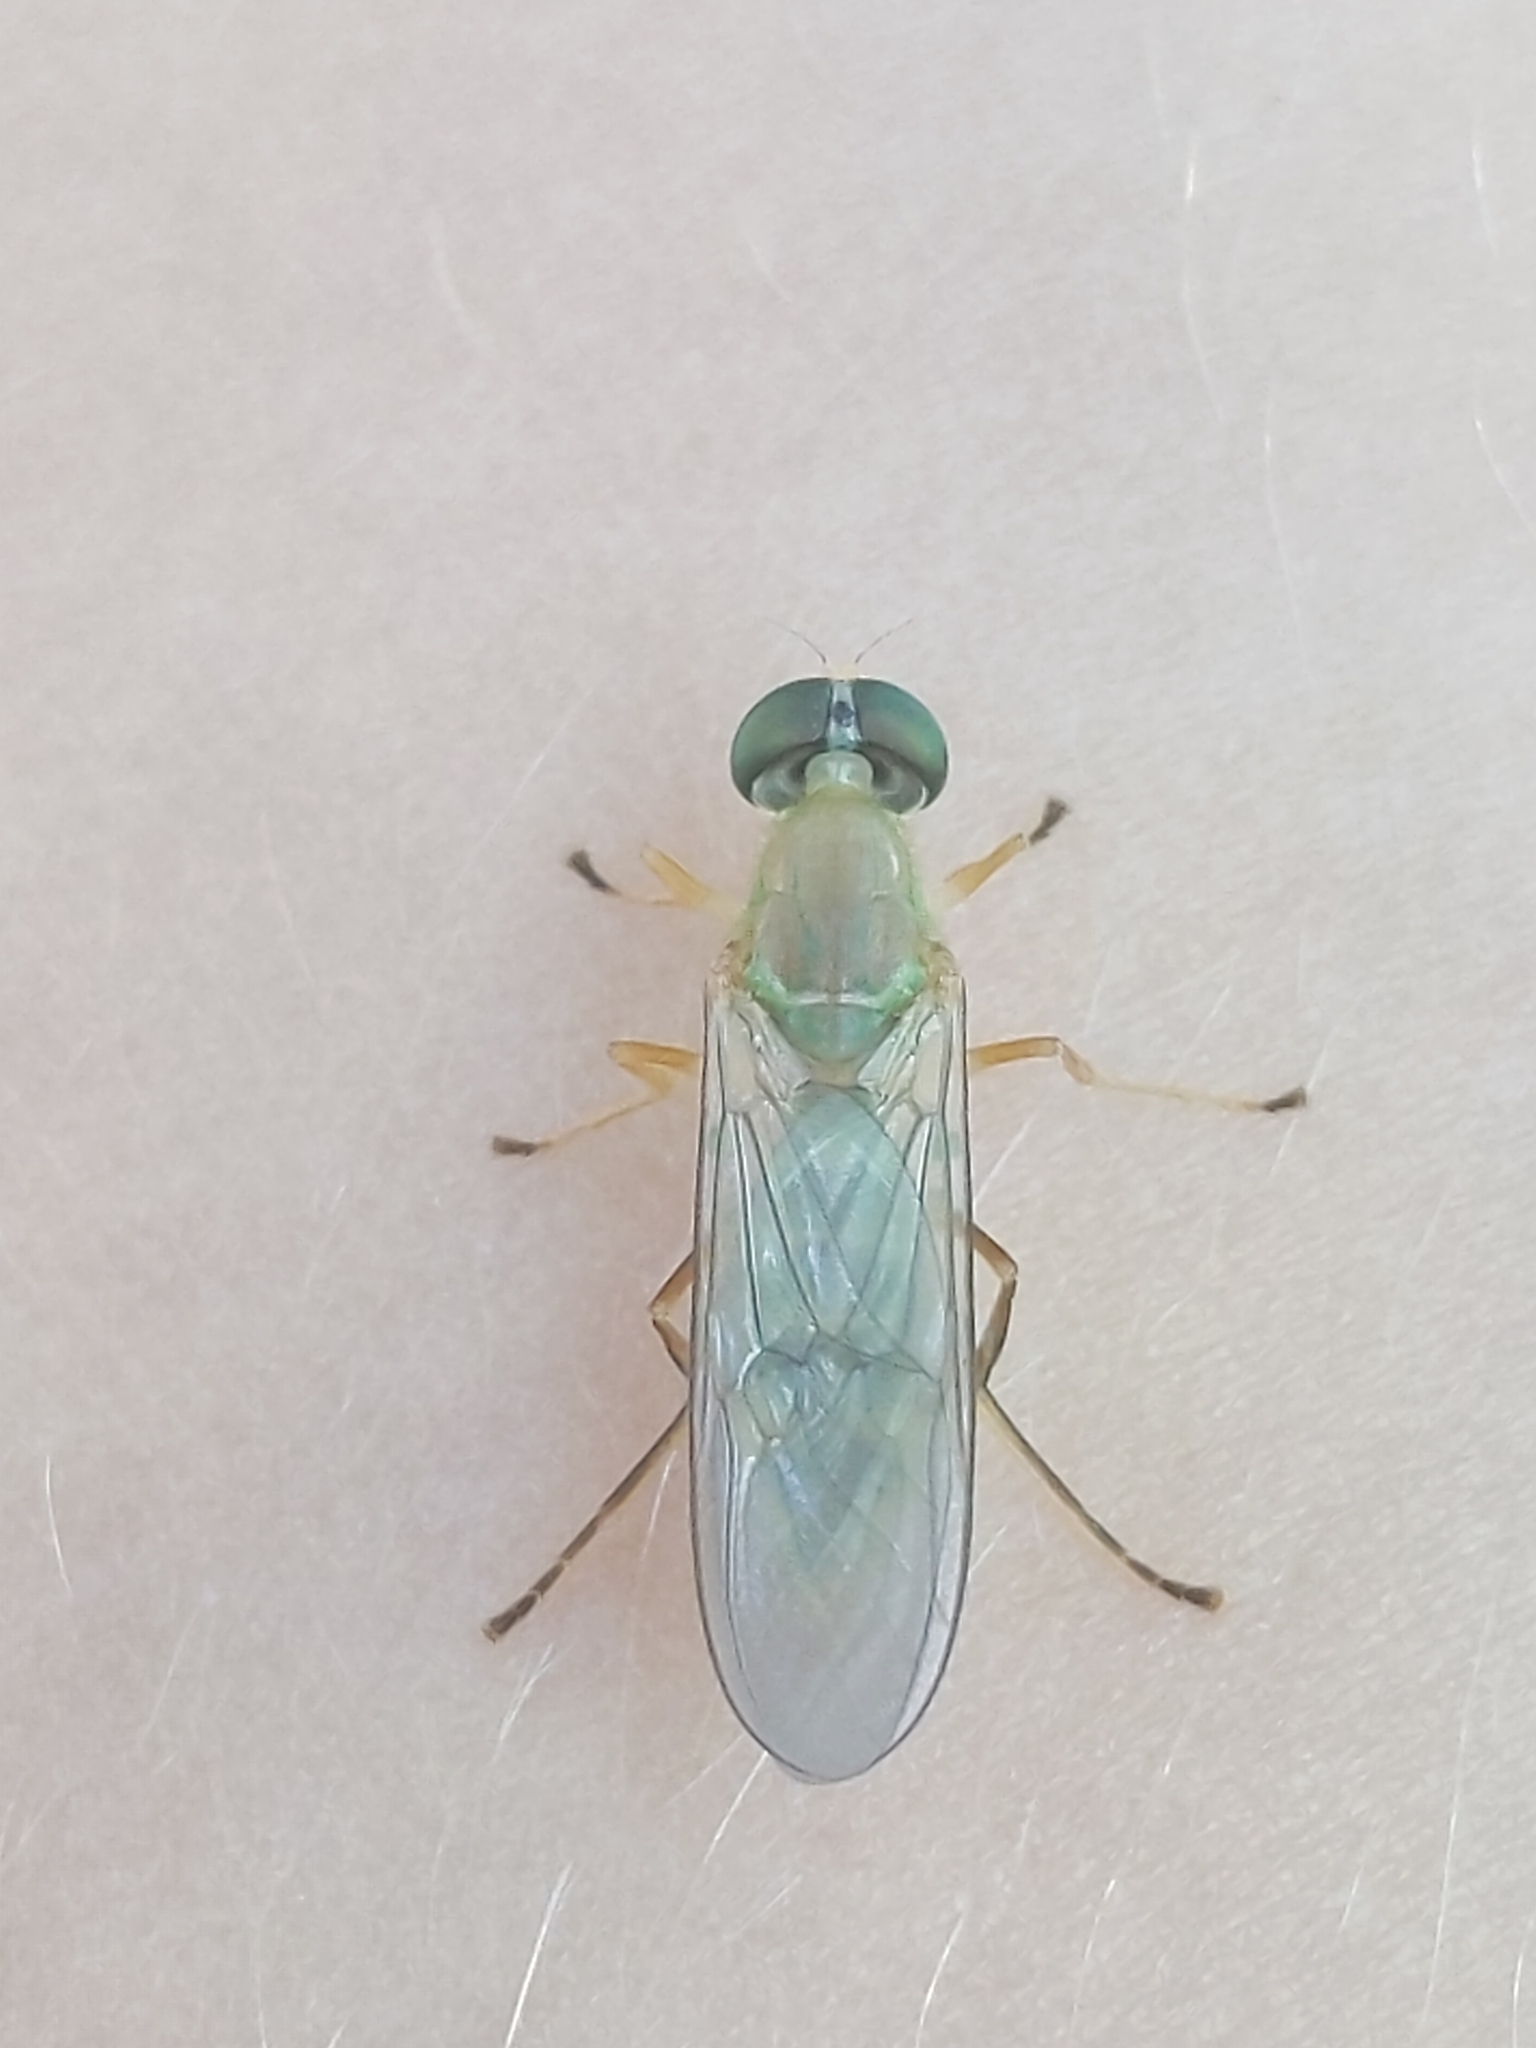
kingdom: Animalia
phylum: Arthropoda
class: Insecta
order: Diptera
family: Stratiomyidae
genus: Ptecticus
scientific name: Ptecticus trivittatus
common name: Compost fly
